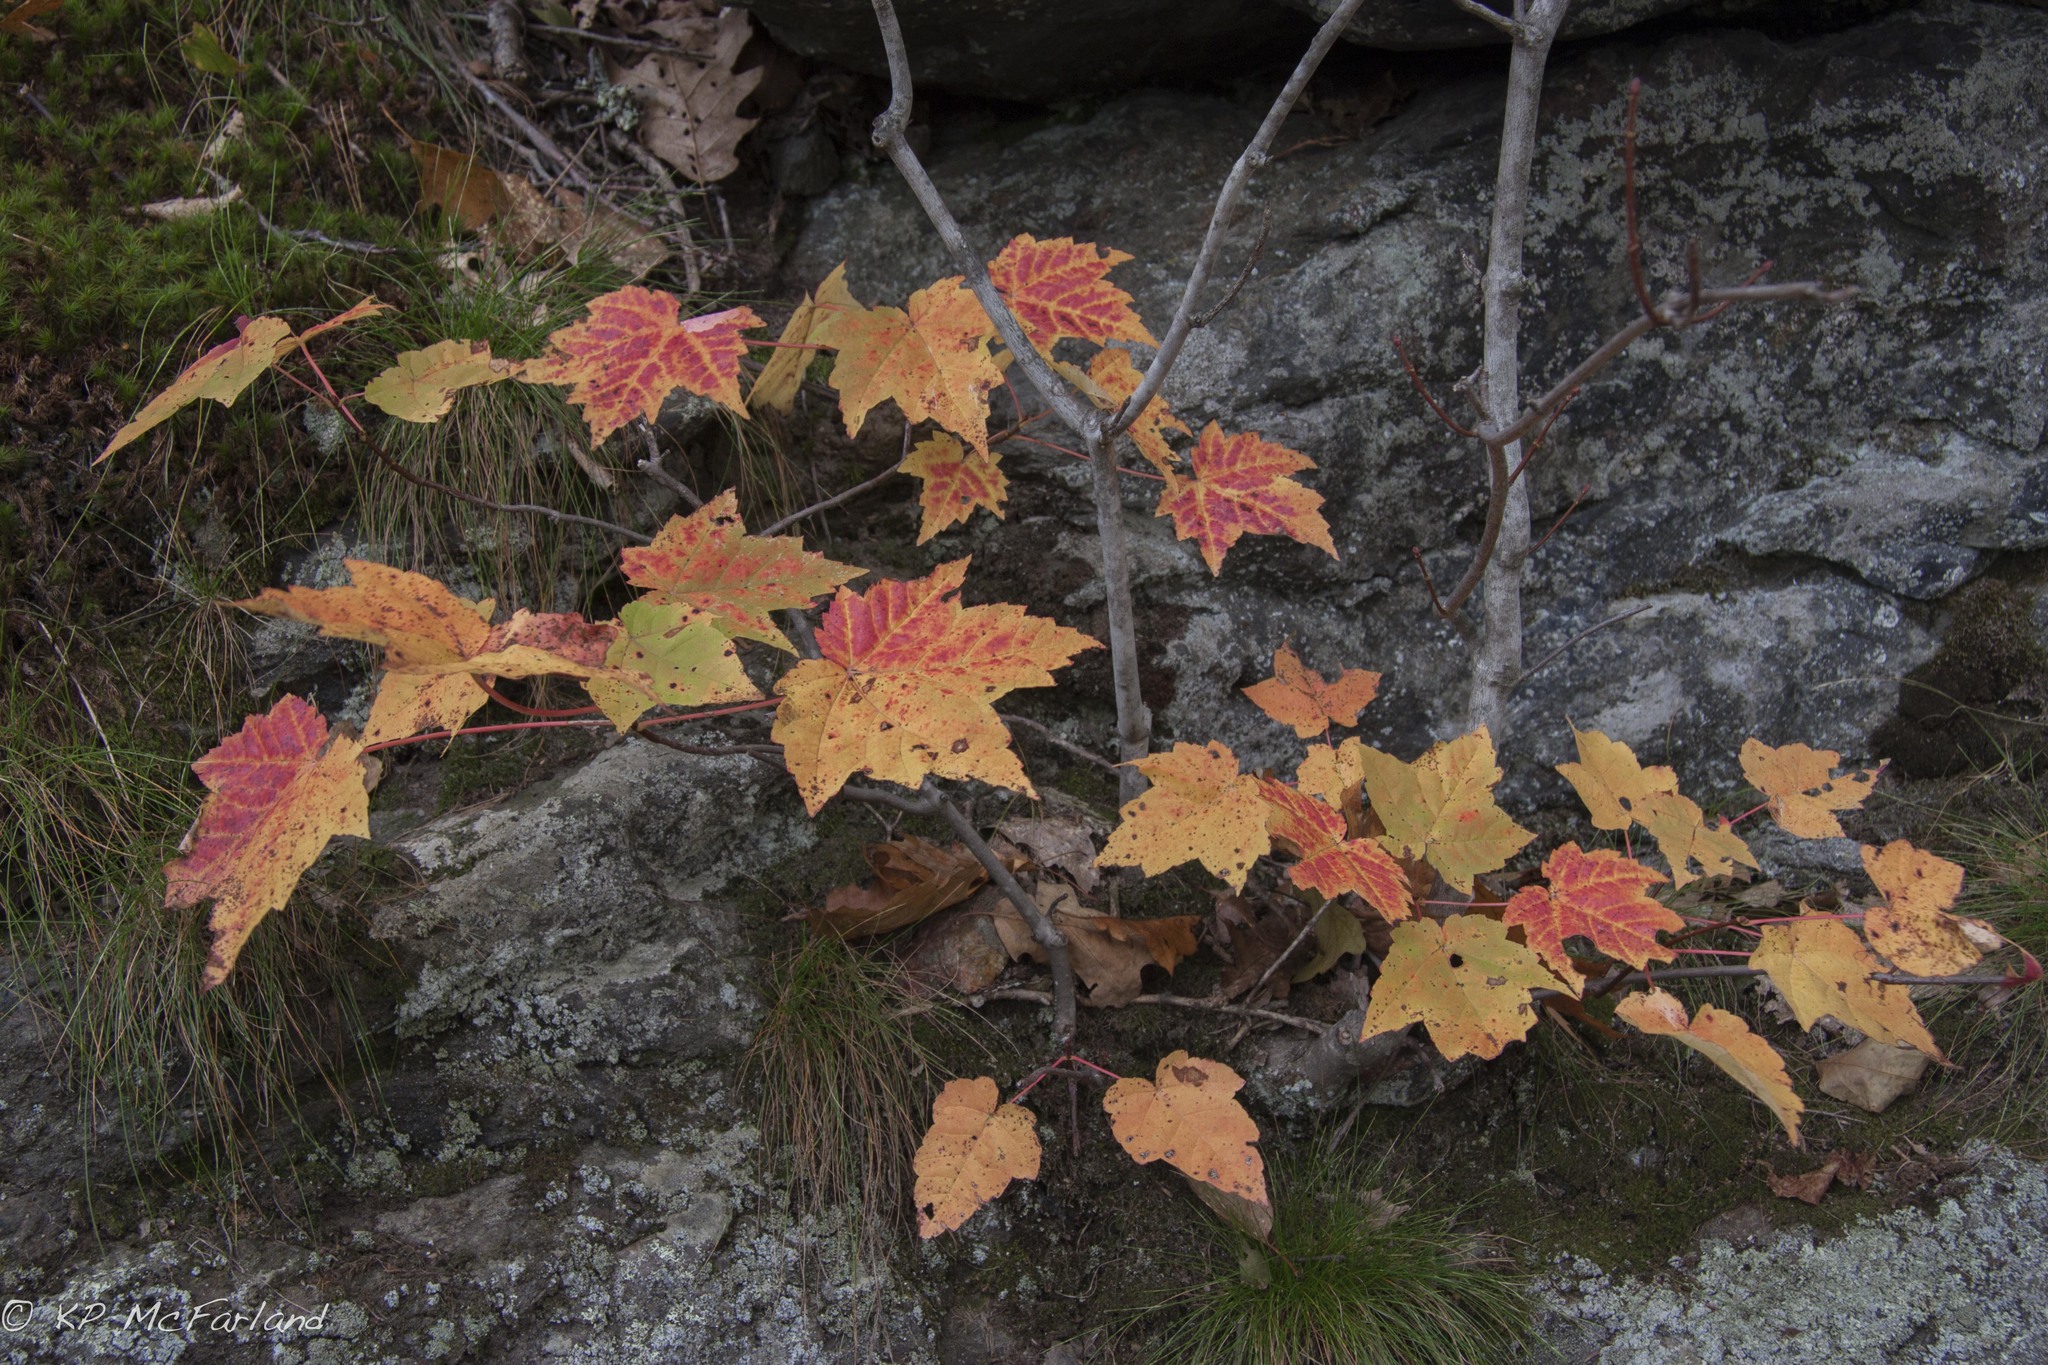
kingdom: Plantae
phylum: Tracheophyta
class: Magnoliopsida
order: Sapindales
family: Sapindaceae
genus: Acer
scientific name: Acer spicatum
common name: Mountain maple
